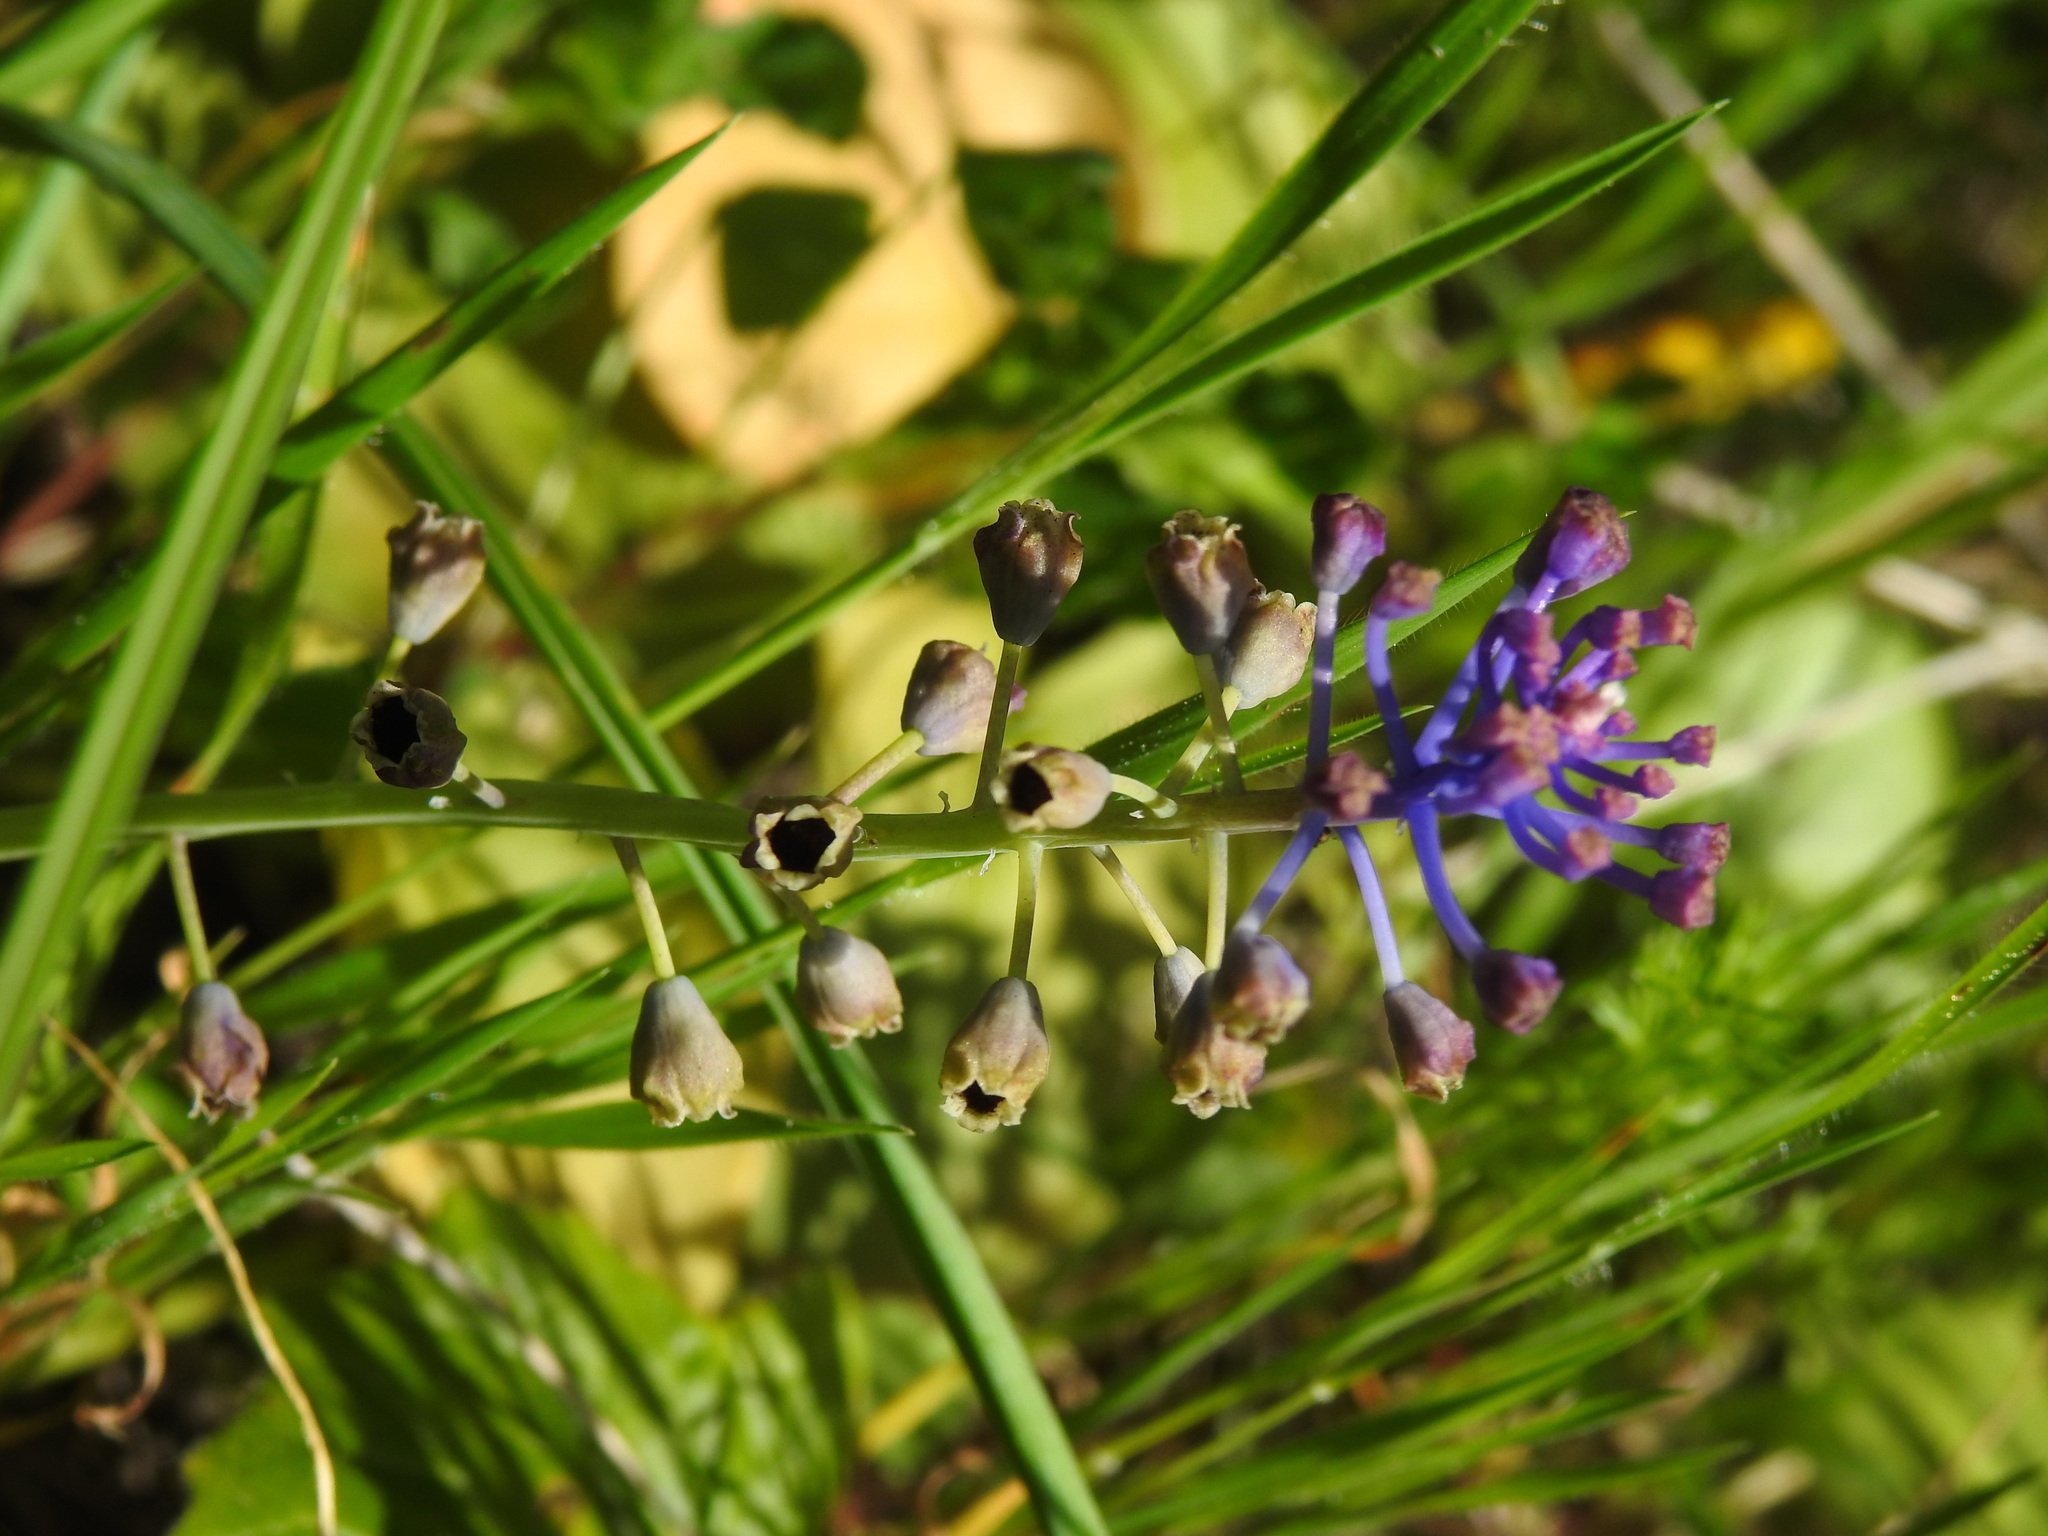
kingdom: Plantae
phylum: Tracheophyta
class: Liliopsida
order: Asparagales
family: Asparagaceae
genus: Muscari
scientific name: Muscari comosum
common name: Tassel hyacinth
